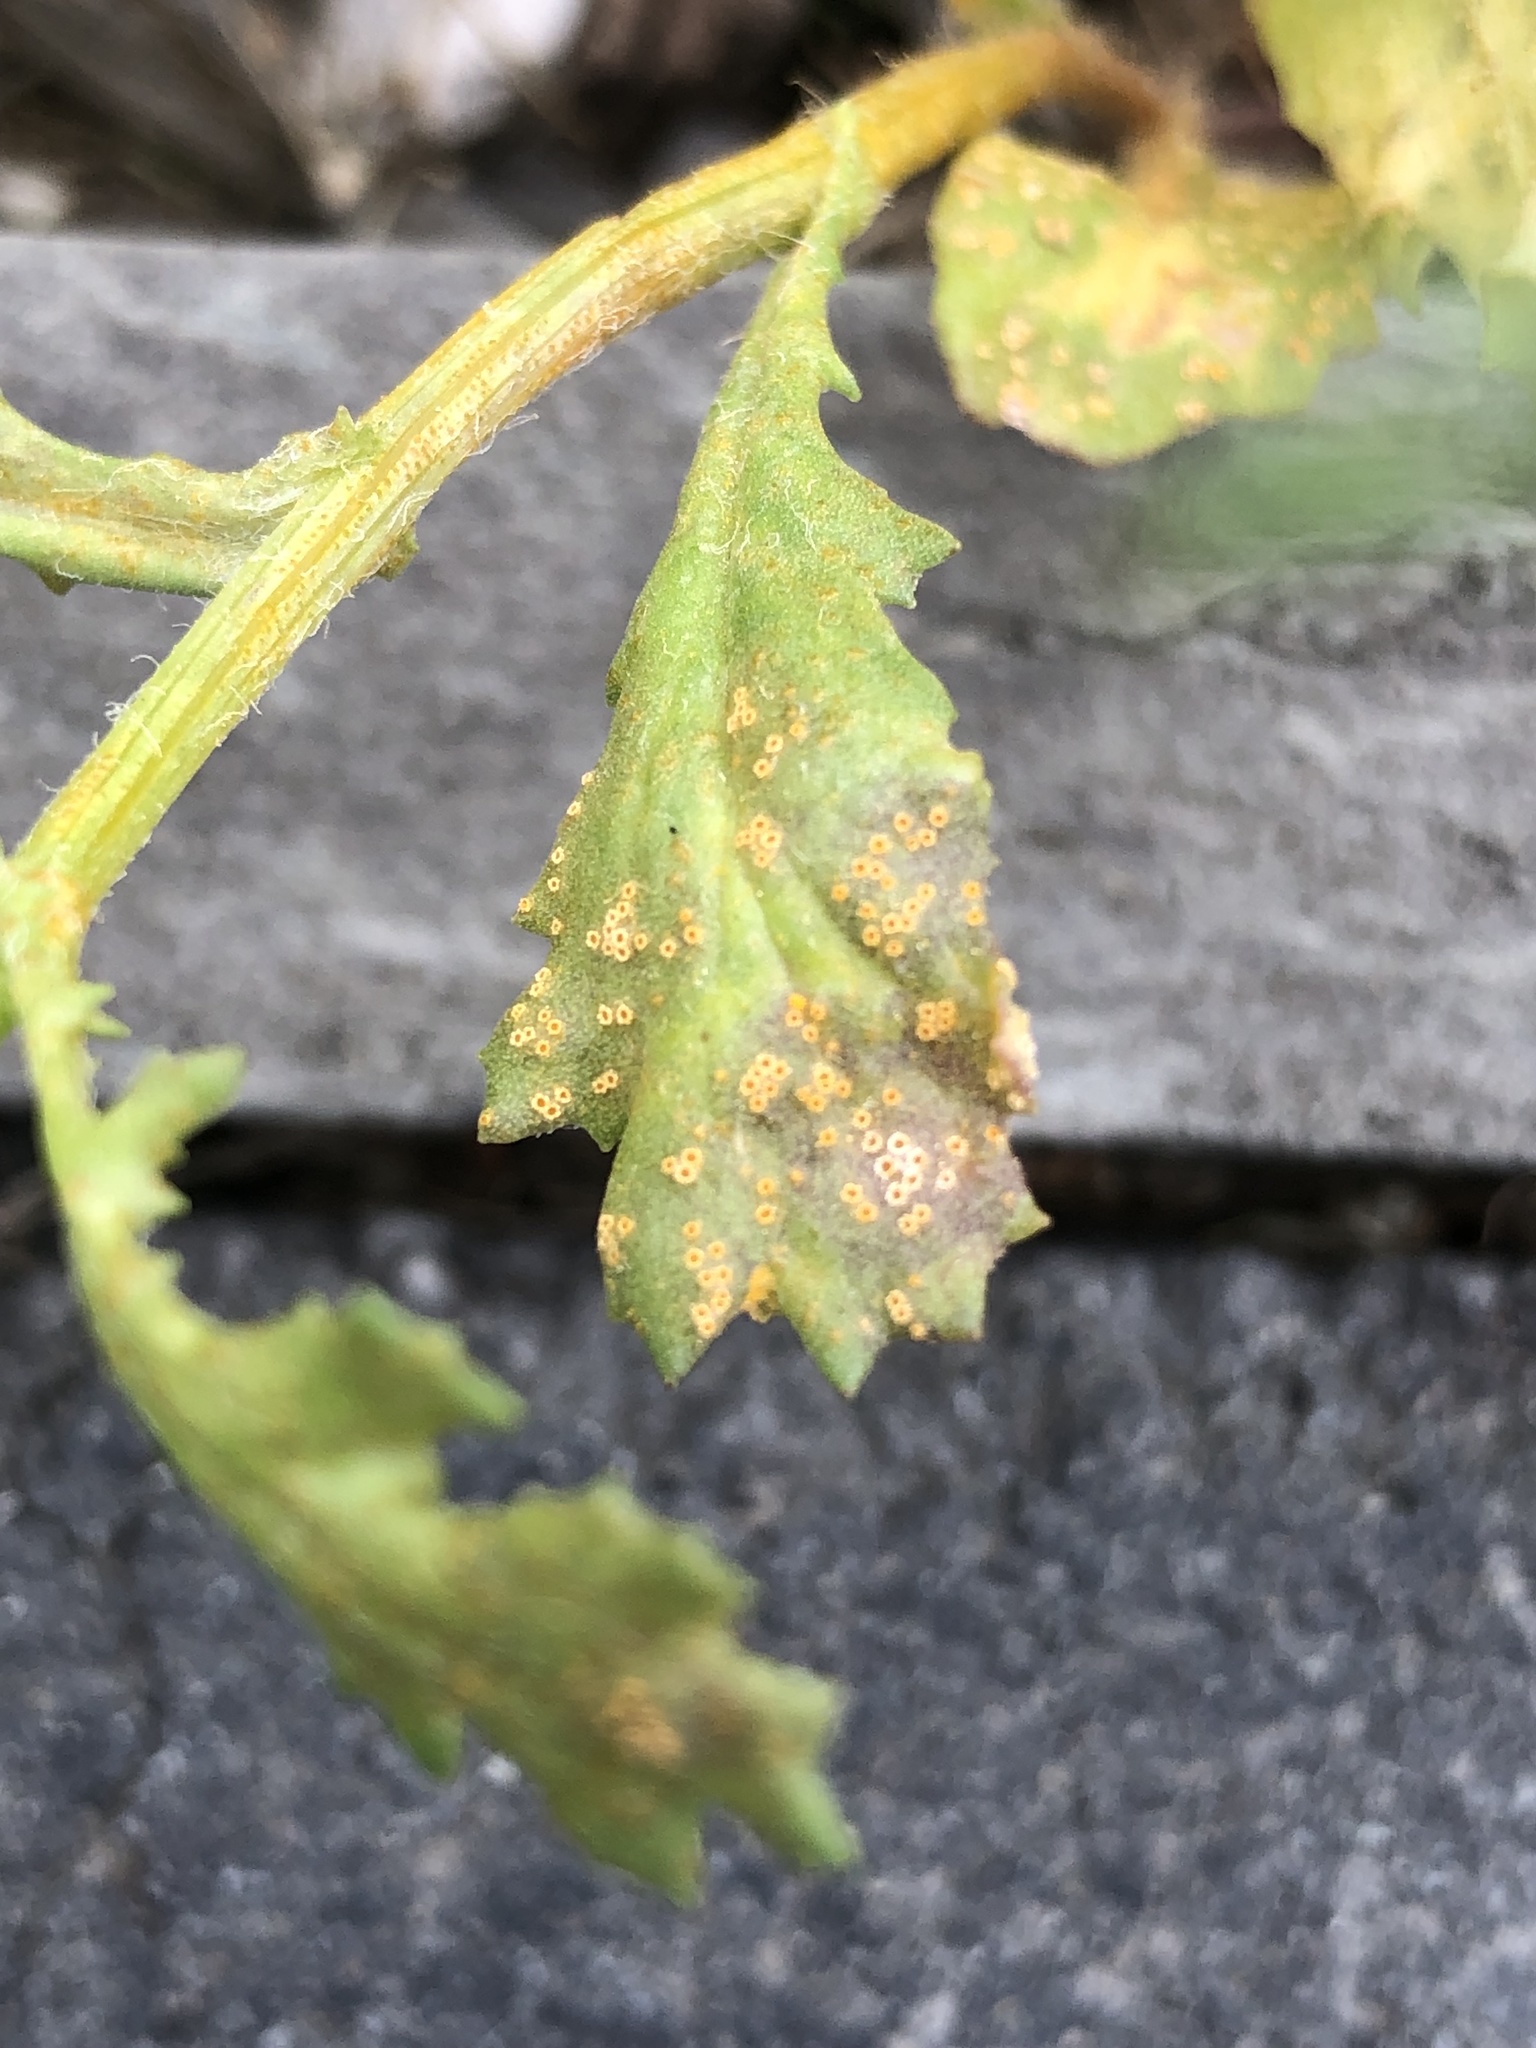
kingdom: Plantae
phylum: Tracheophyta
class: Magnoliopsida
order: Asterales
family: Asteraceae
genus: Senecio
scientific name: Senecio vulgaris
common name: Old-man-in-the-spring
